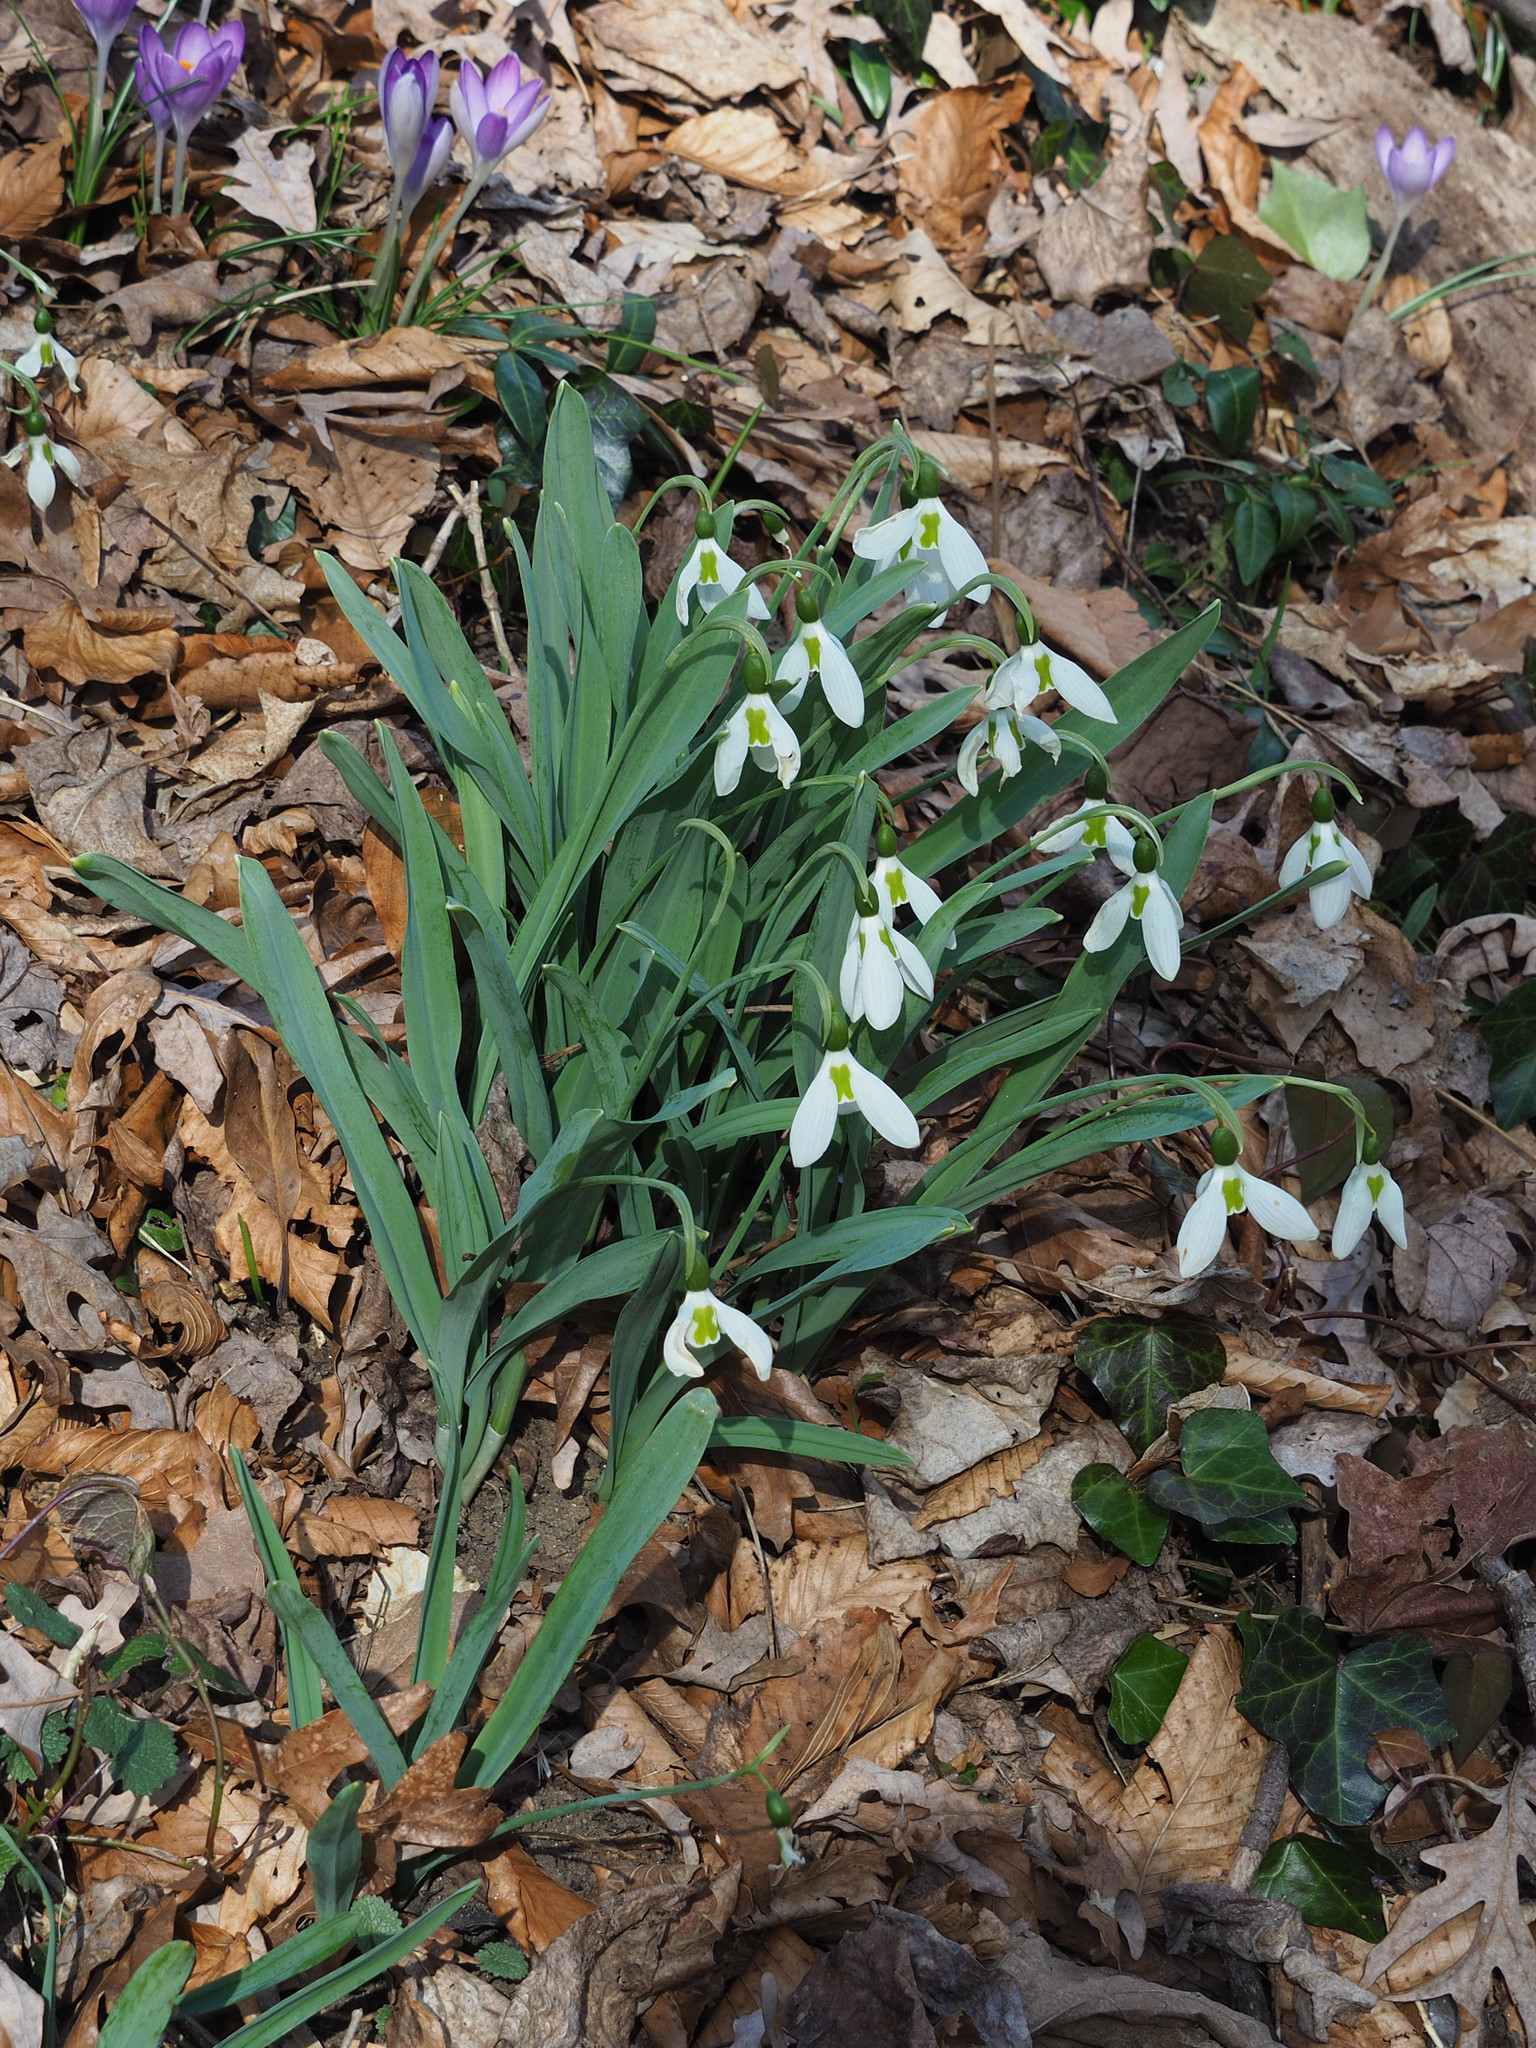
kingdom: Plantae
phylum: Tracheophyta
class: Liliopsida
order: Asparagales
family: Amaryllidaceae
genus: Galanthus
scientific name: Galanthus elwesii
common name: Greater snowdrop
